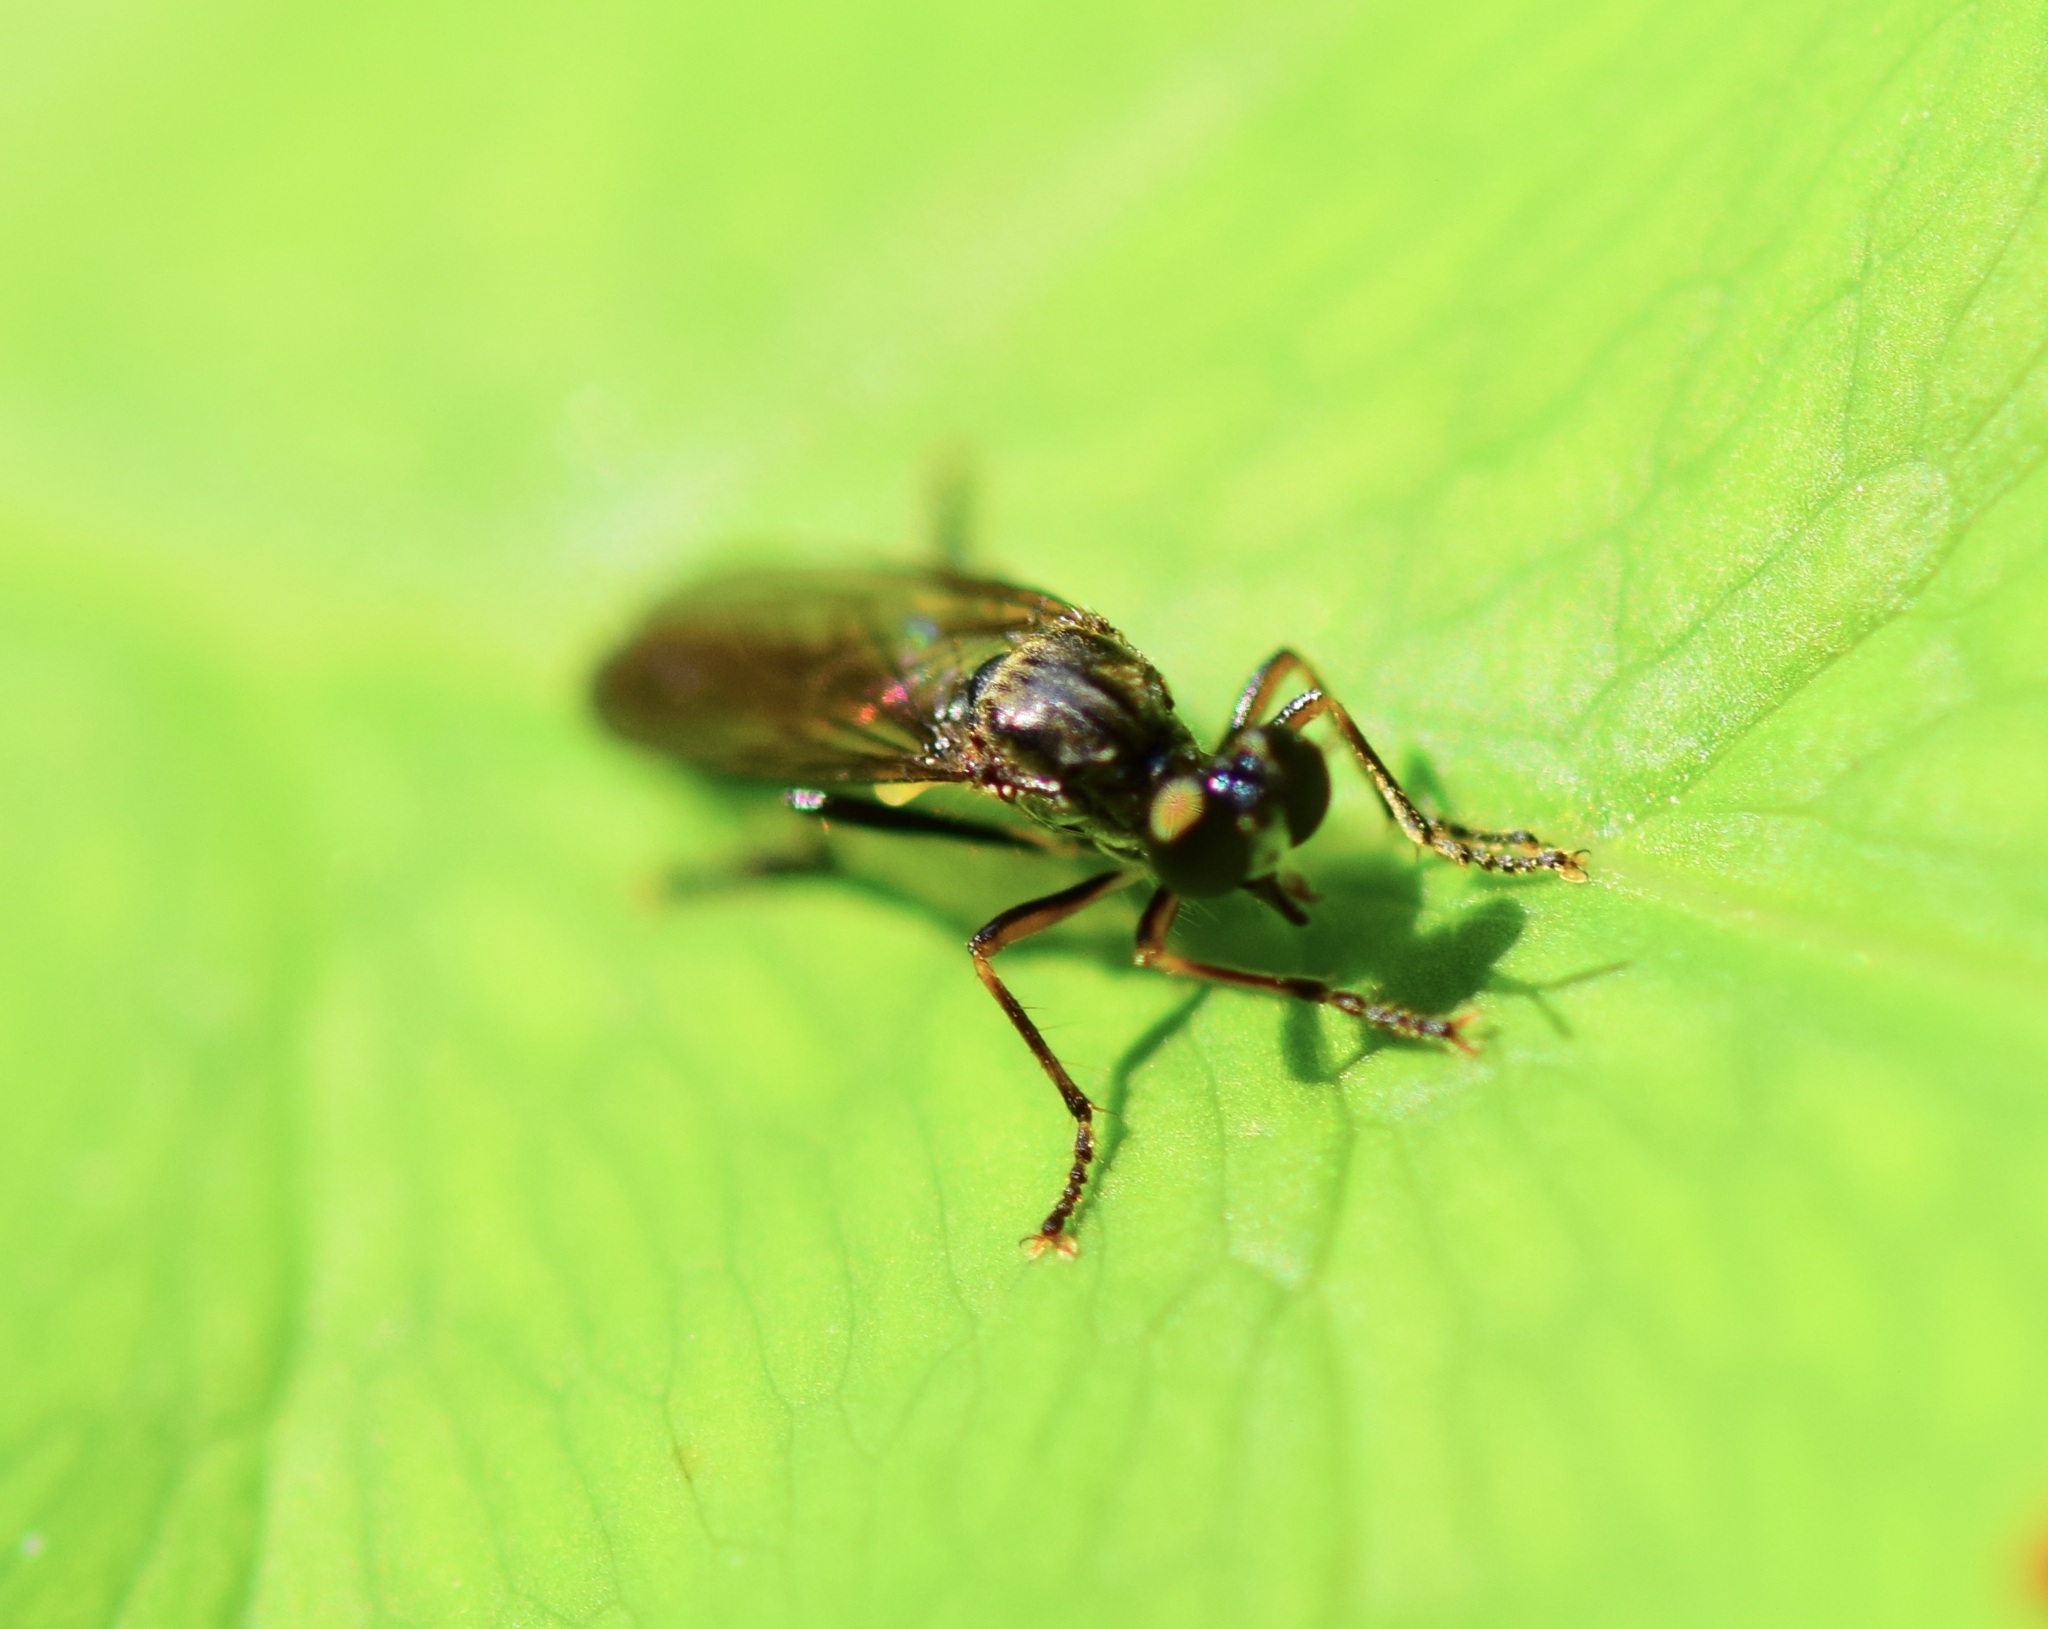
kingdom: Animalia
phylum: Arthropoda
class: Insecta
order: Diptera
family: Asilidae
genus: Dioctria
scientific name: Dioctria hyalipennis
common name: Stripe-legged robberfly
